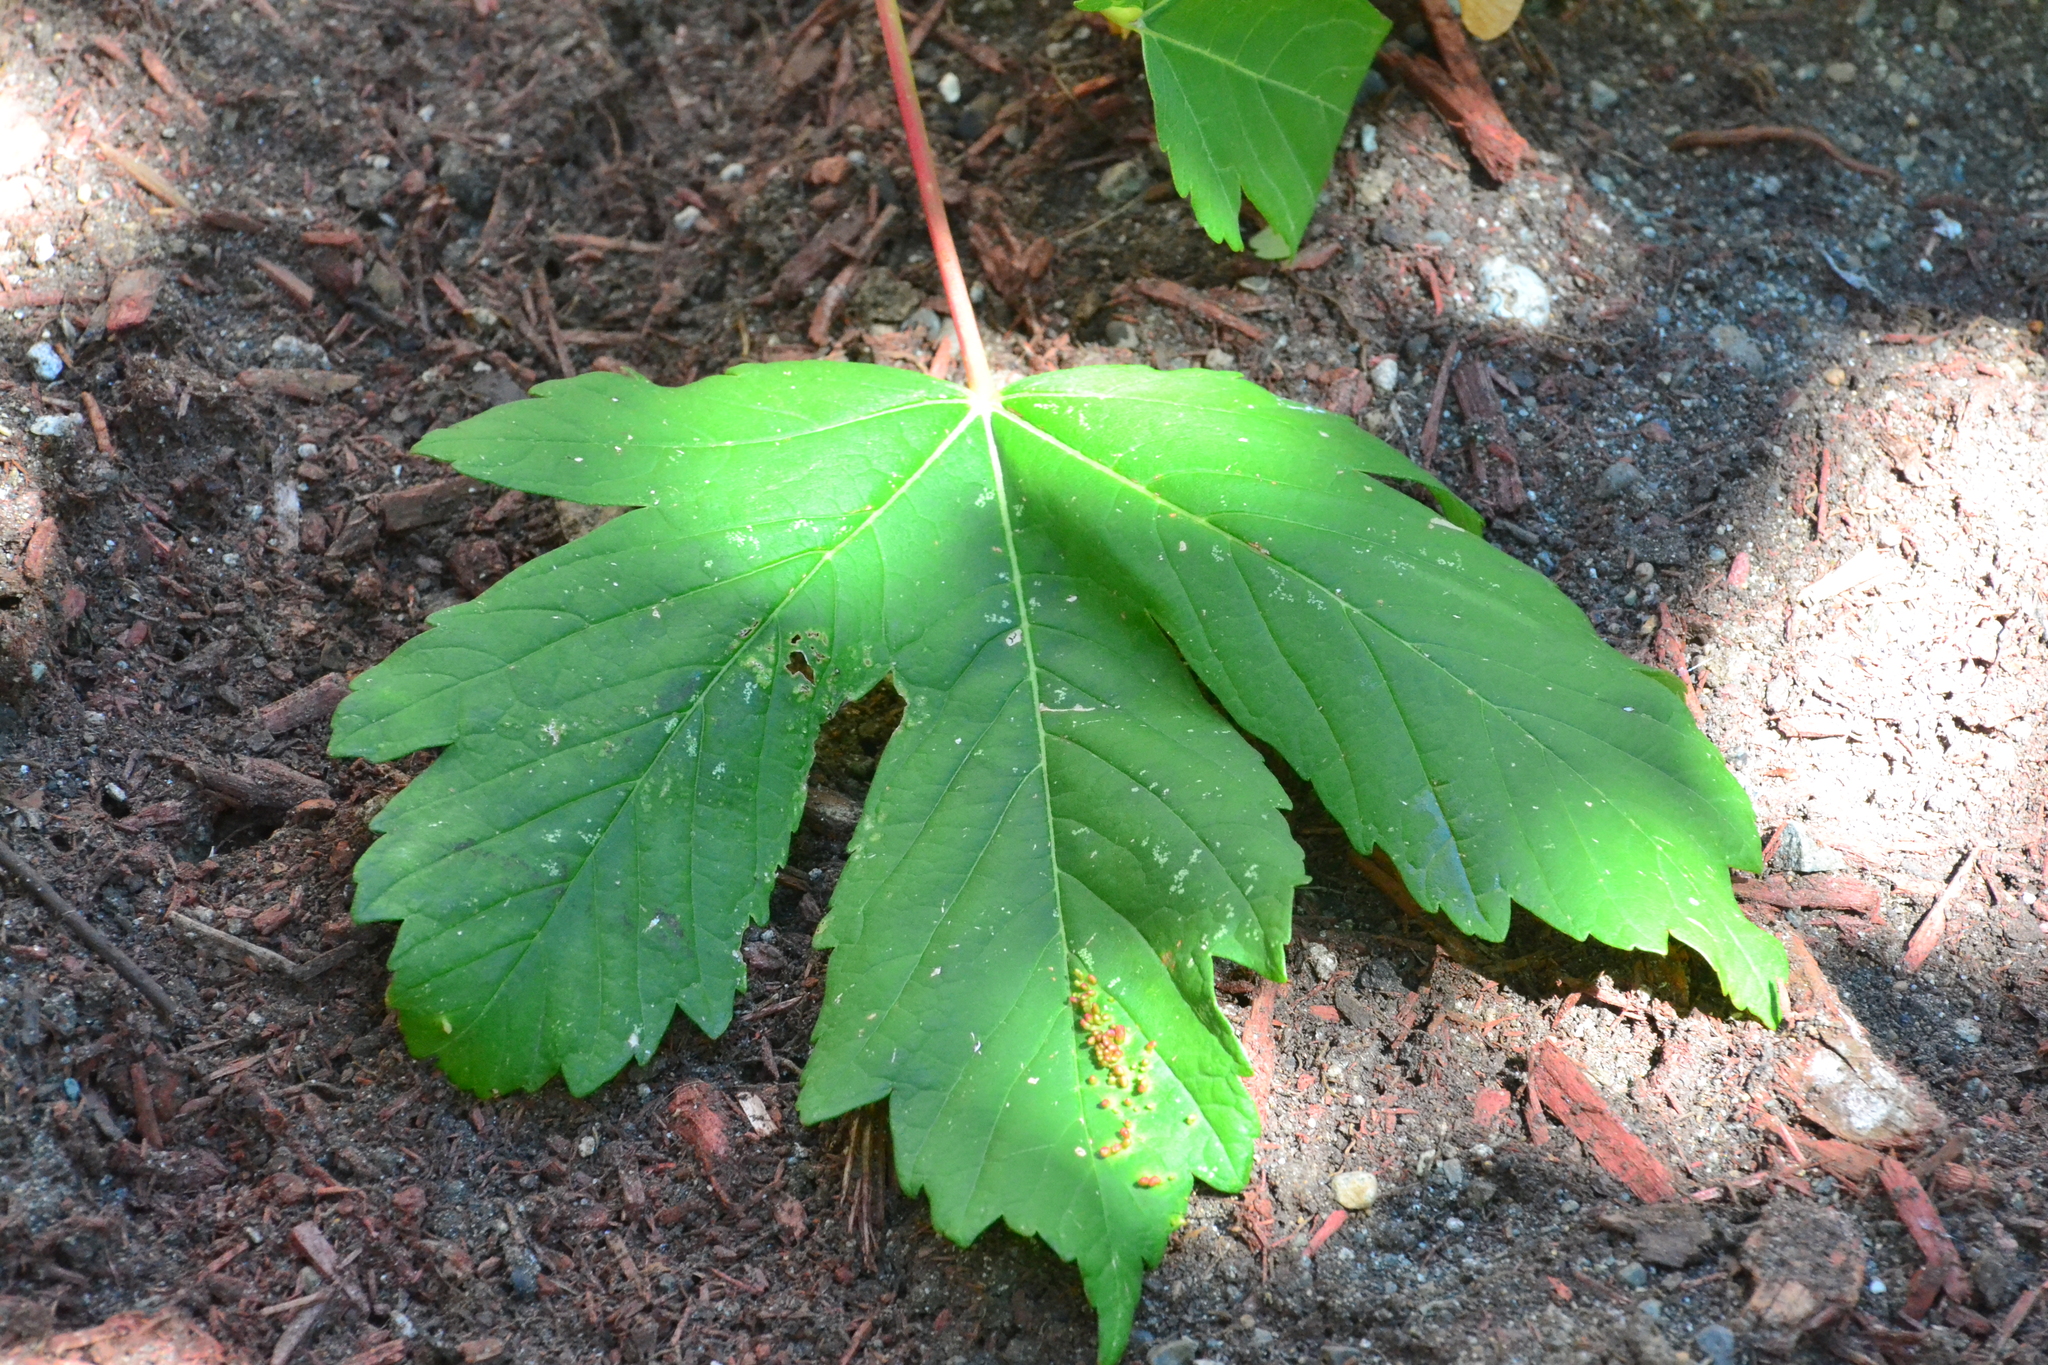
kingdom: Plantae
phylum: Tracheophyta
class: Magnoliopsida
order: Sapindales
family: Sapindaceae
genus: Acer
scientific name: Acer pseudoplatanus
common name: Sycamore
